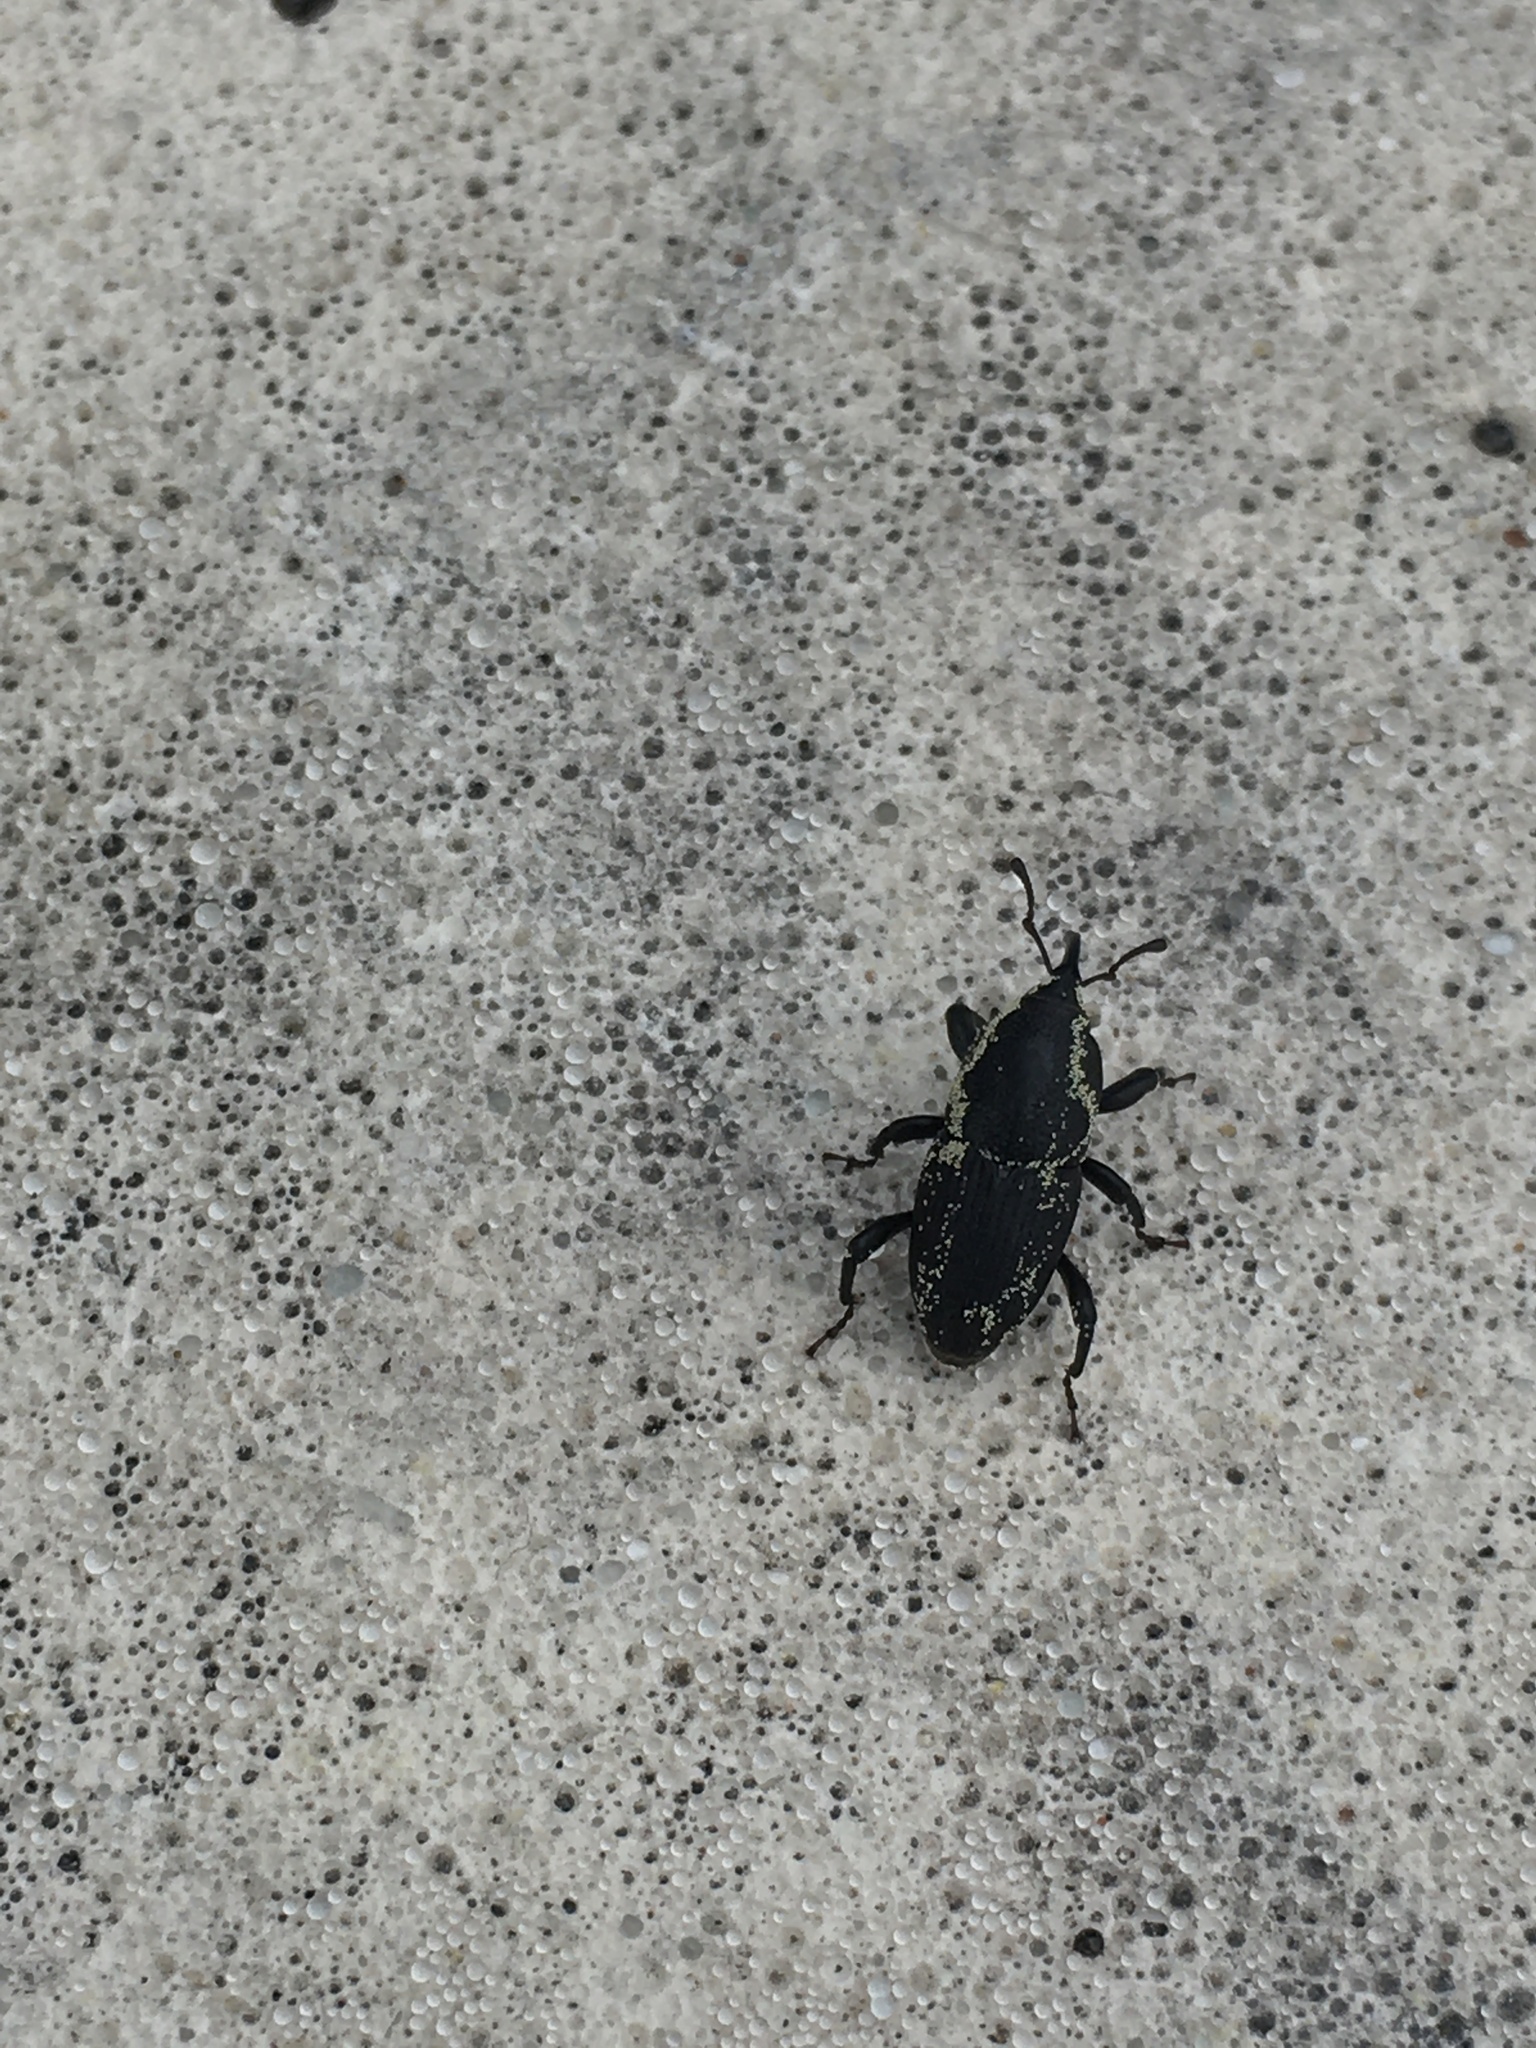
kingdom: Animalia
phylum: Arthropoda
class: Insecta
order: Coleoptera
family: Dryophthoridae
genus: Sphenophorus
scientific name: Sphenophorus necydaloides
